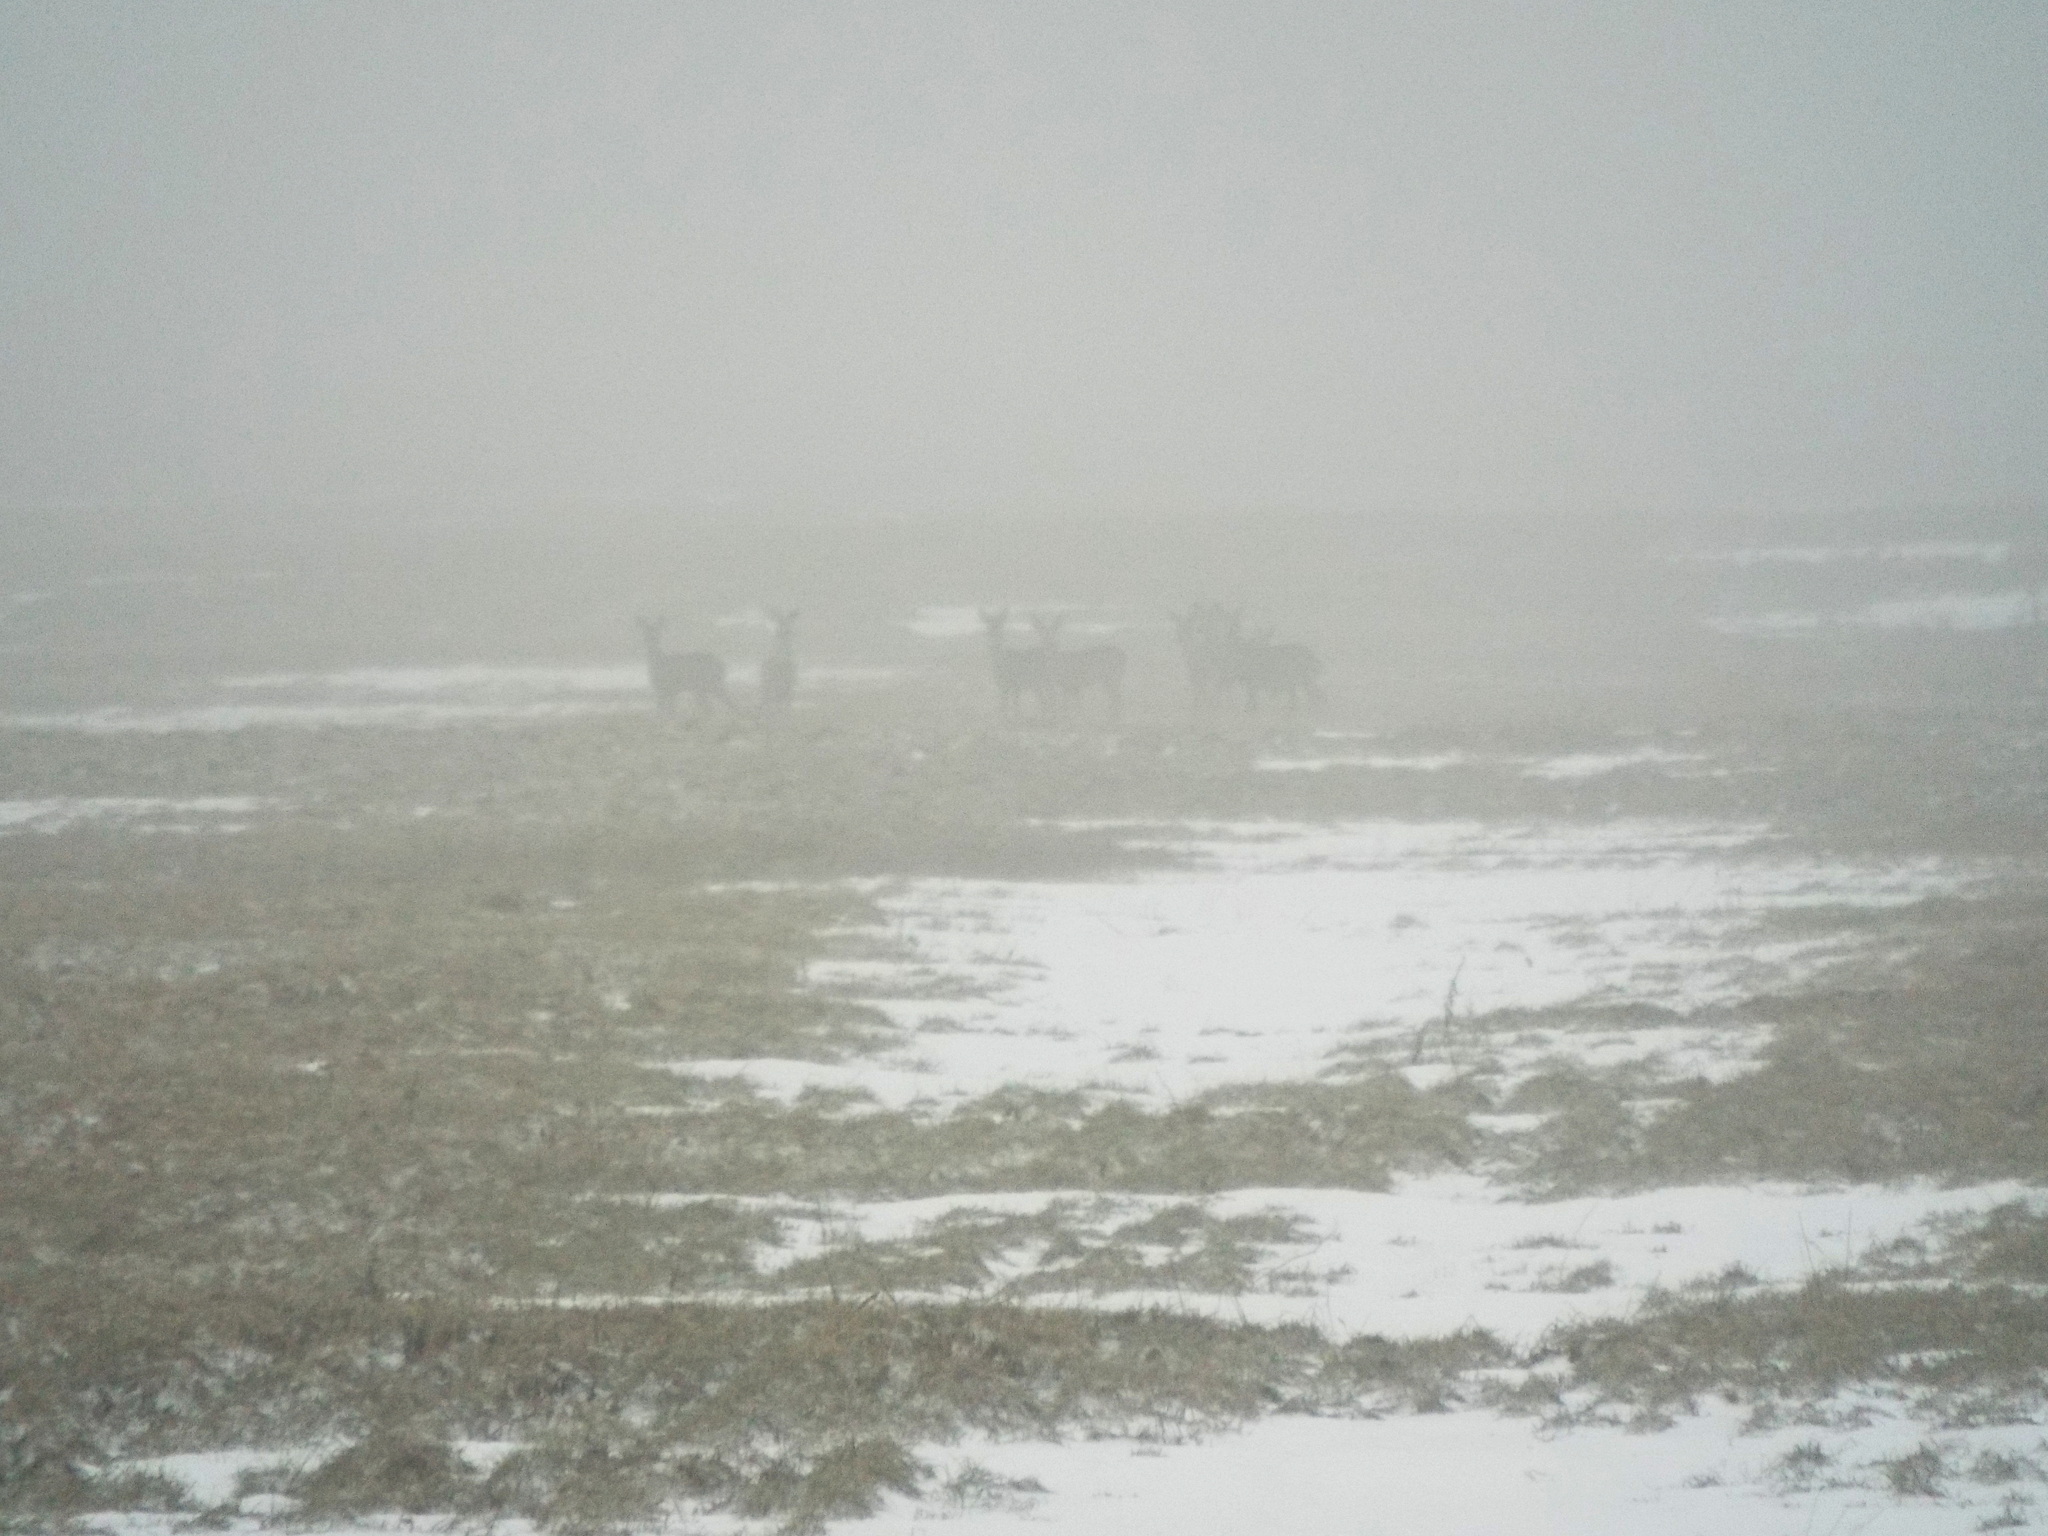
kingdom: Animalia
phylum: Chordata
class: Mammalia
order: Artiodactyla
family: Cervidae
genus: Capreolus
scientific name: Capreolus capreolus
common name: Western roe deer
